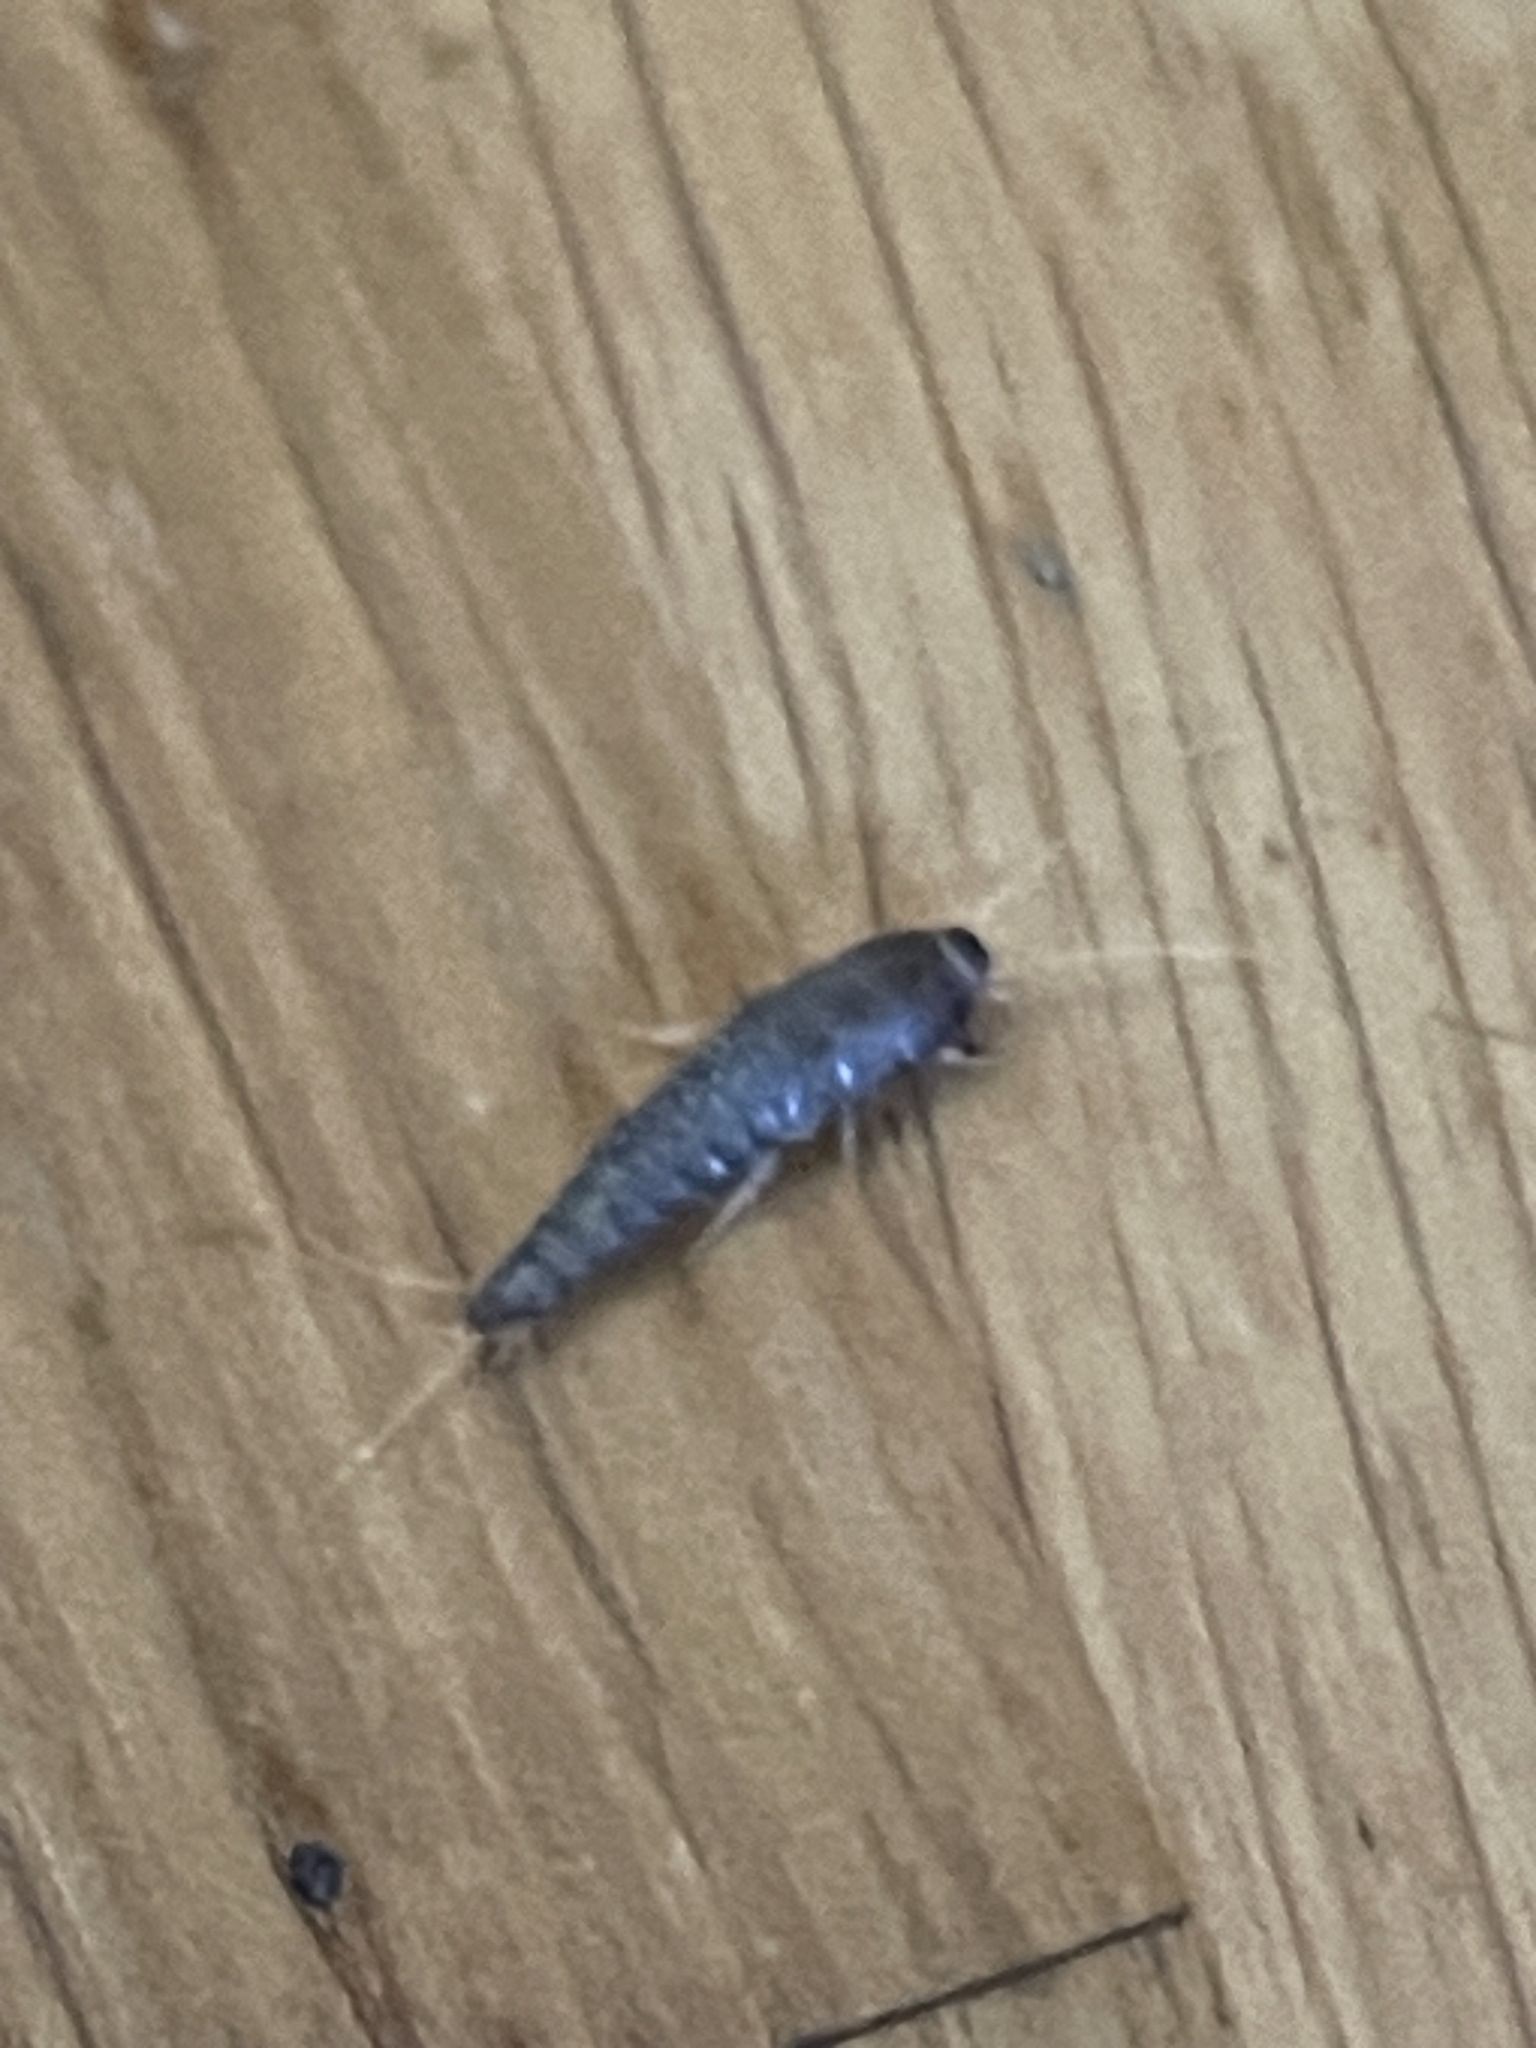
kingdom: Animalia
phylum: Arthropoda
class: Insecta
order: Zygentoma
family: Lepismatidae
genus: Lepisma
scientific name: Lepisma saccharinum
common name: Silverfish
